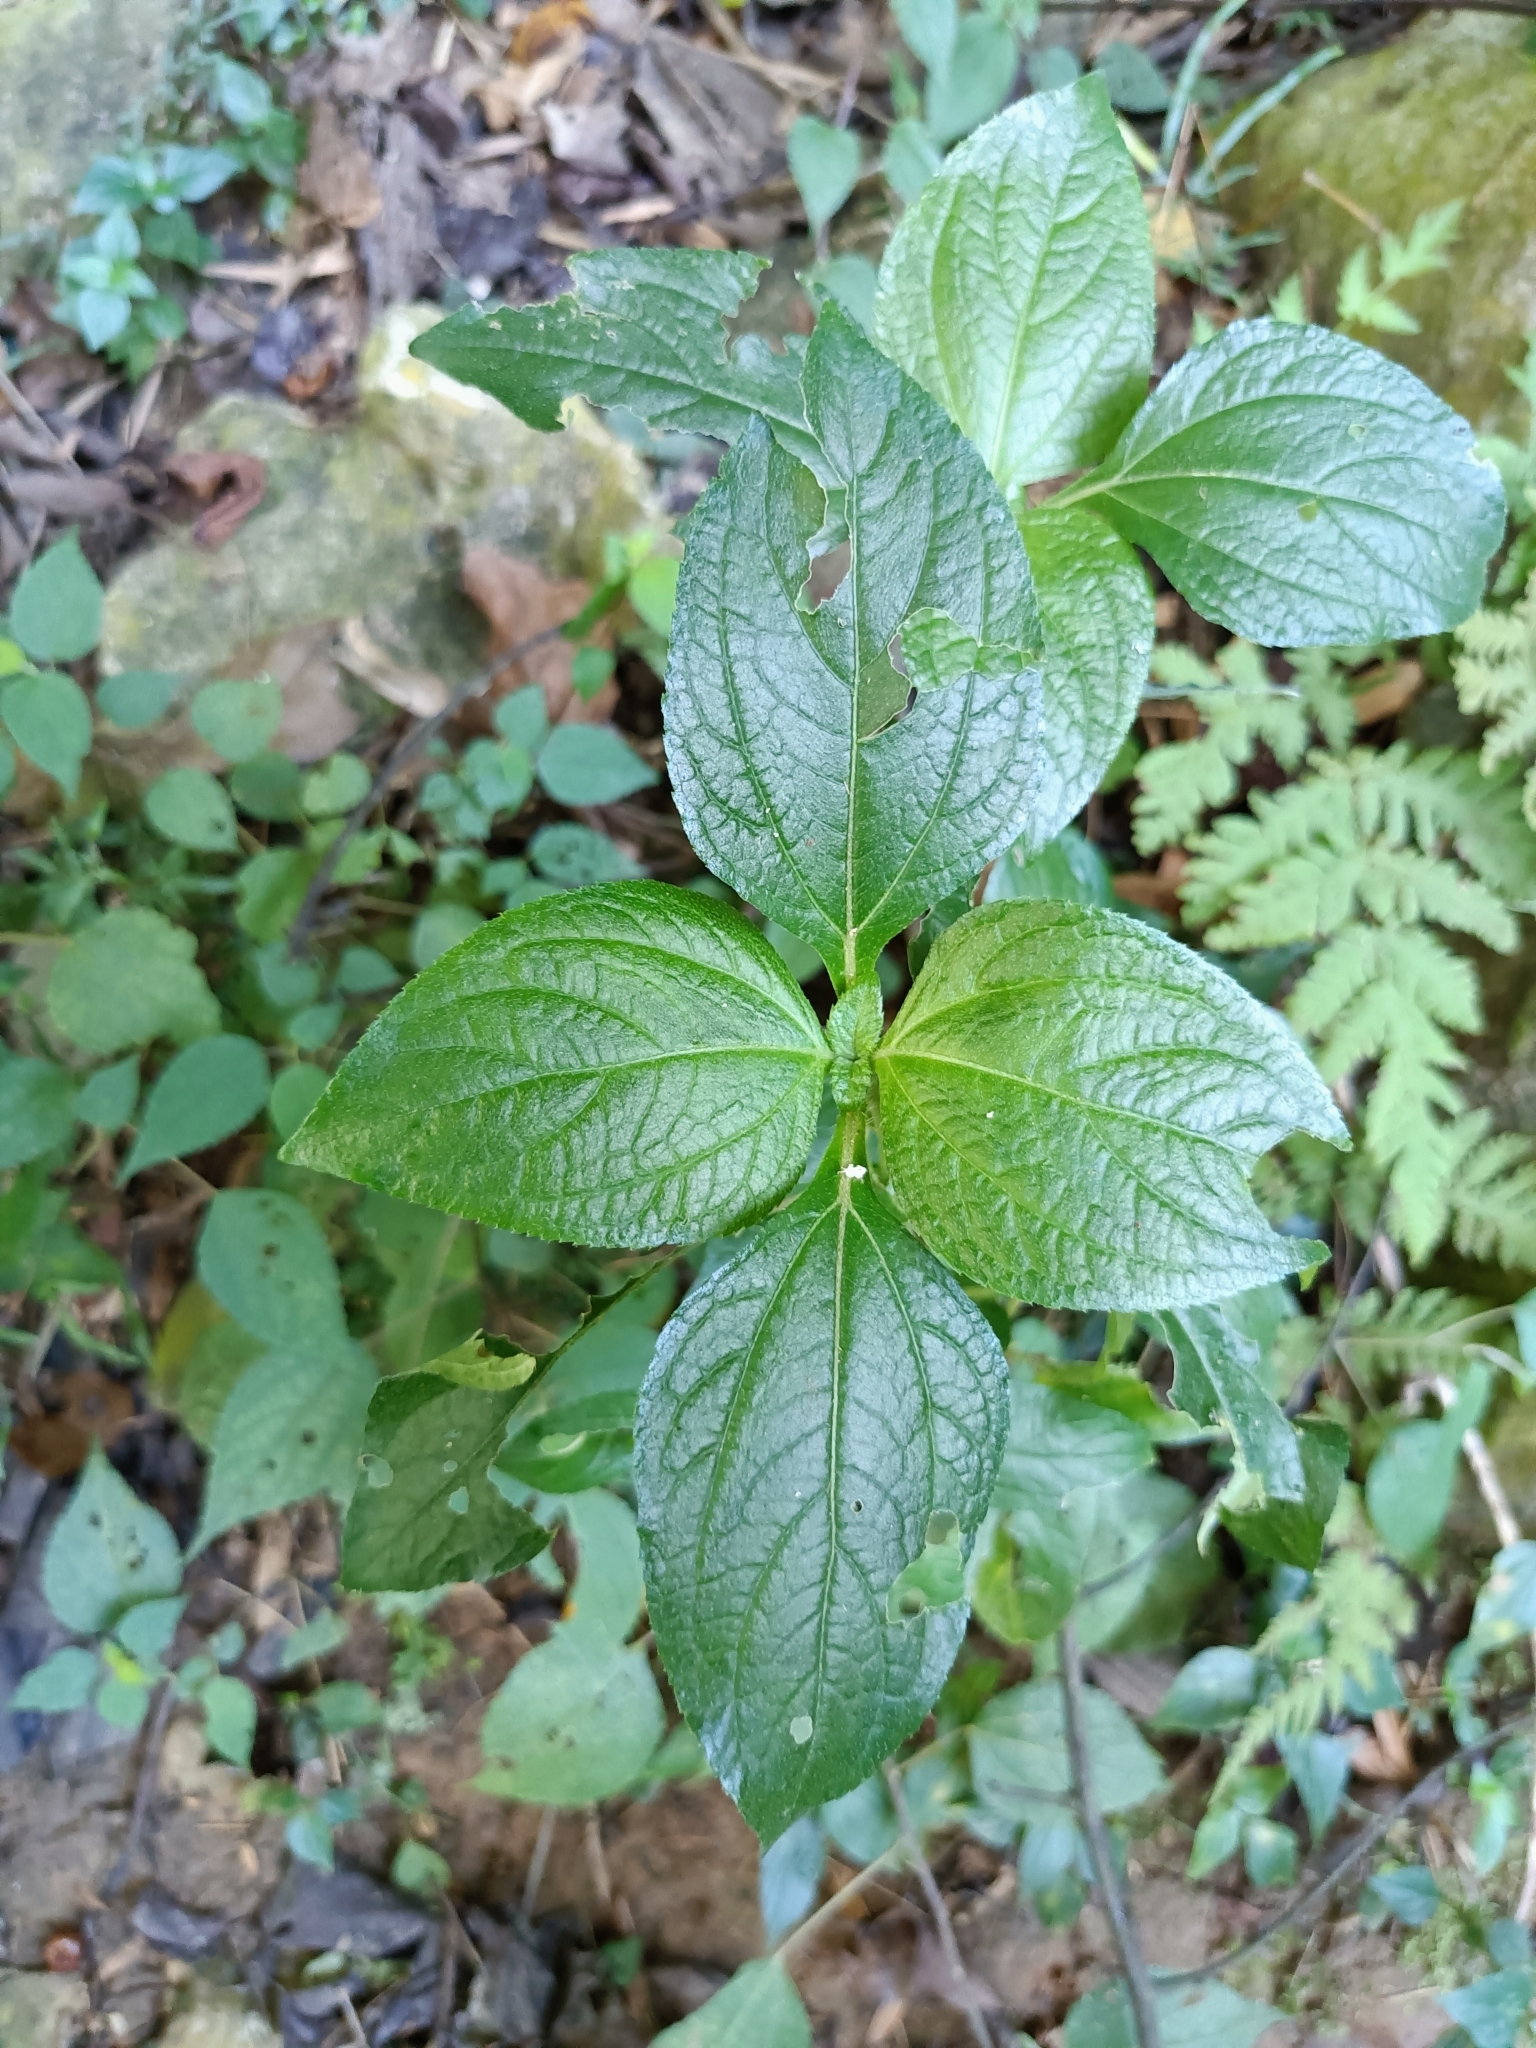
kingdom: Plantae
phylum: Tracheophyta
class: Magnoliopsida
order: Asterales
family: Asteraceae
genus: Synedrella
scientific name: Synedrella nodiflora
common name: Nodeweed
